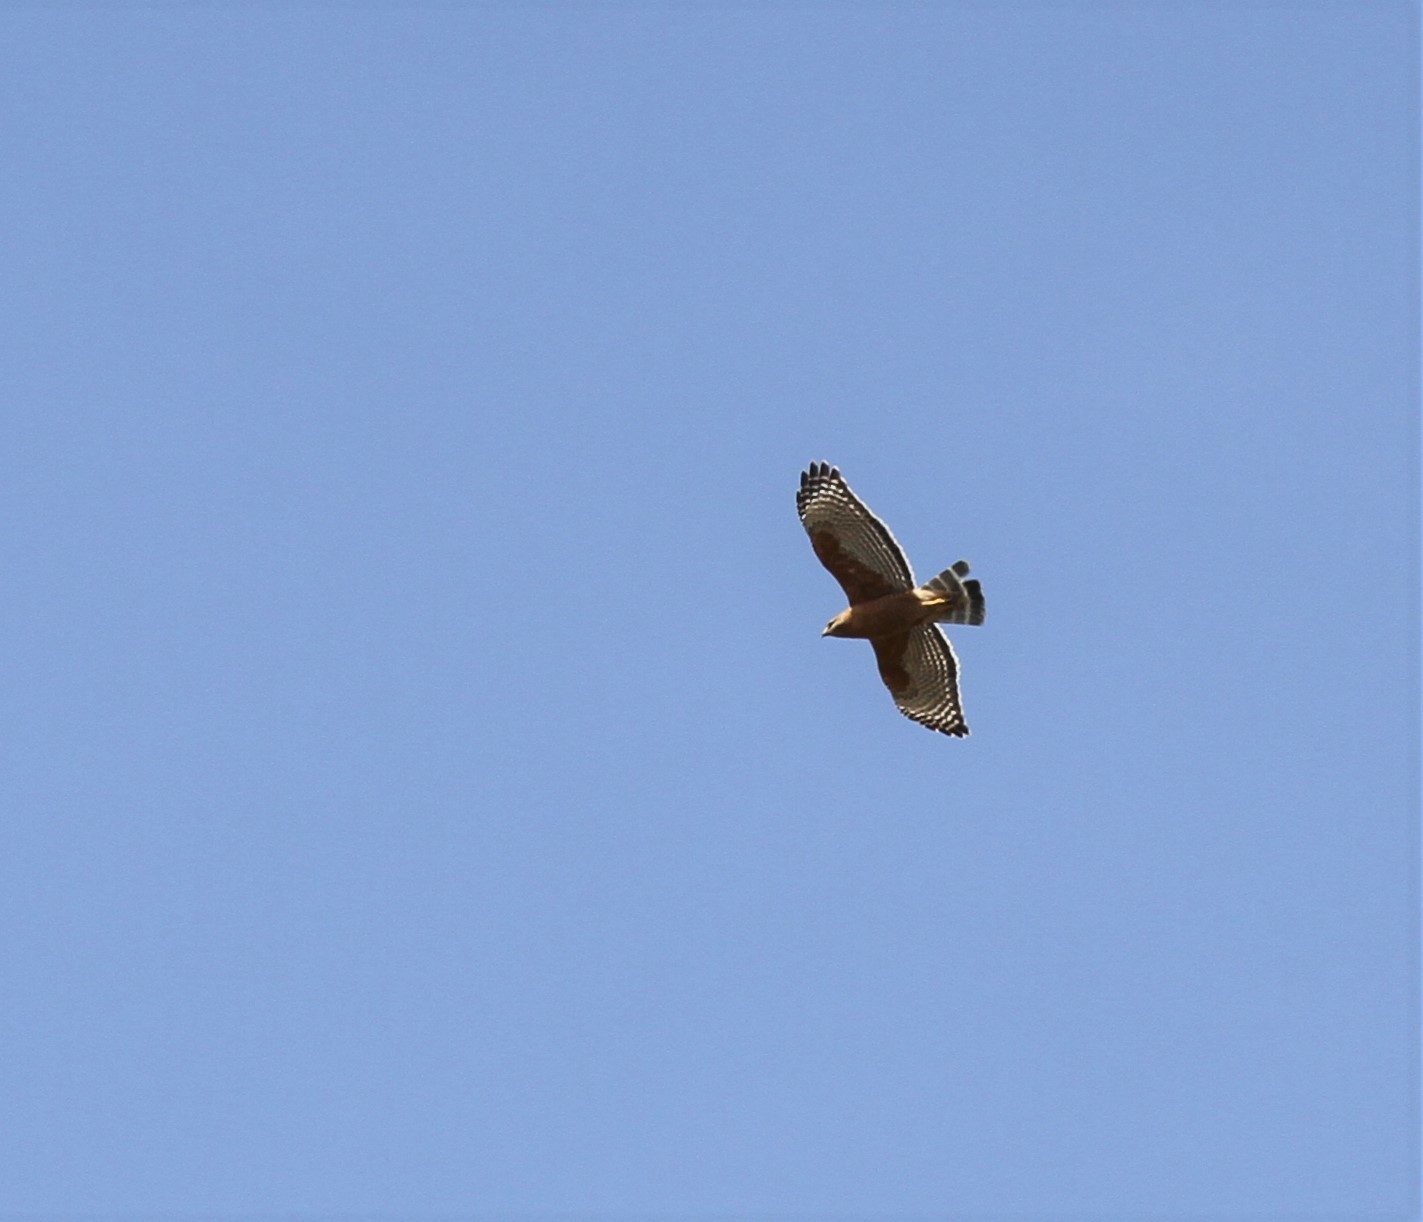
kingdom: Animalia
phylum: Chordata
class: Aves
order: Accipitriformes
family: Accipitridae
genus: Buteo
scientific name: Buteo lineatus
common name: Red-shouldered hawk
